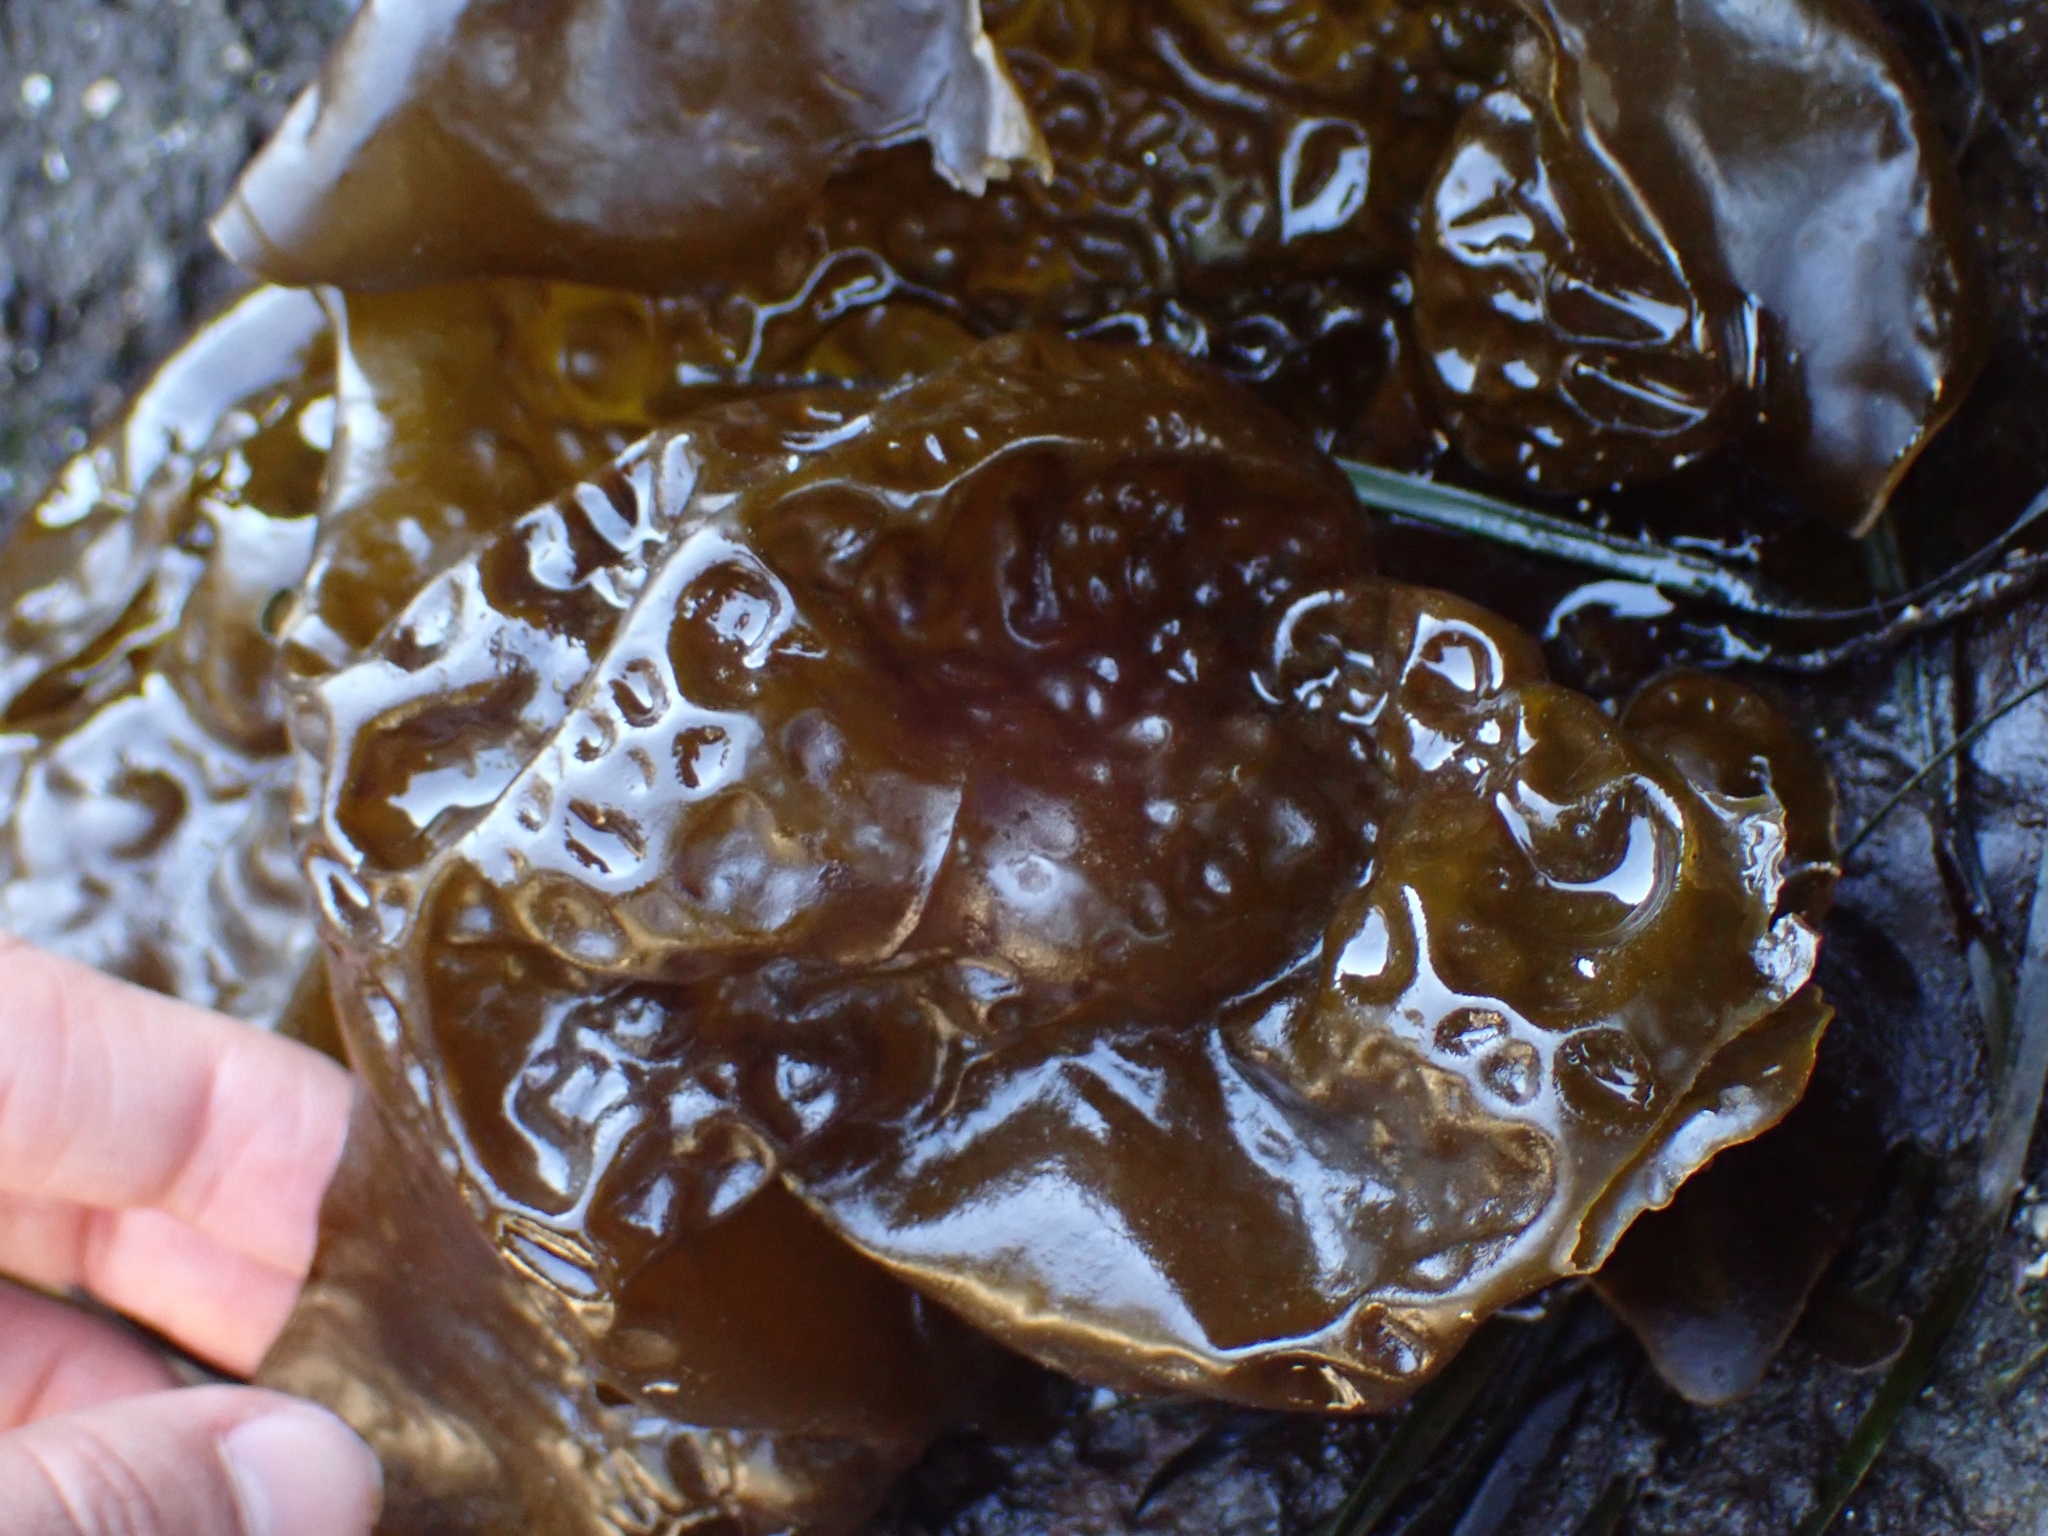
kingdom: Chromista
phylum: Ochrophyta
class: Phaeophyceae
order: Laminariales
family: Laminariaceae
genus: Hedophyllum
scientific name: Hedophyllum sessile
